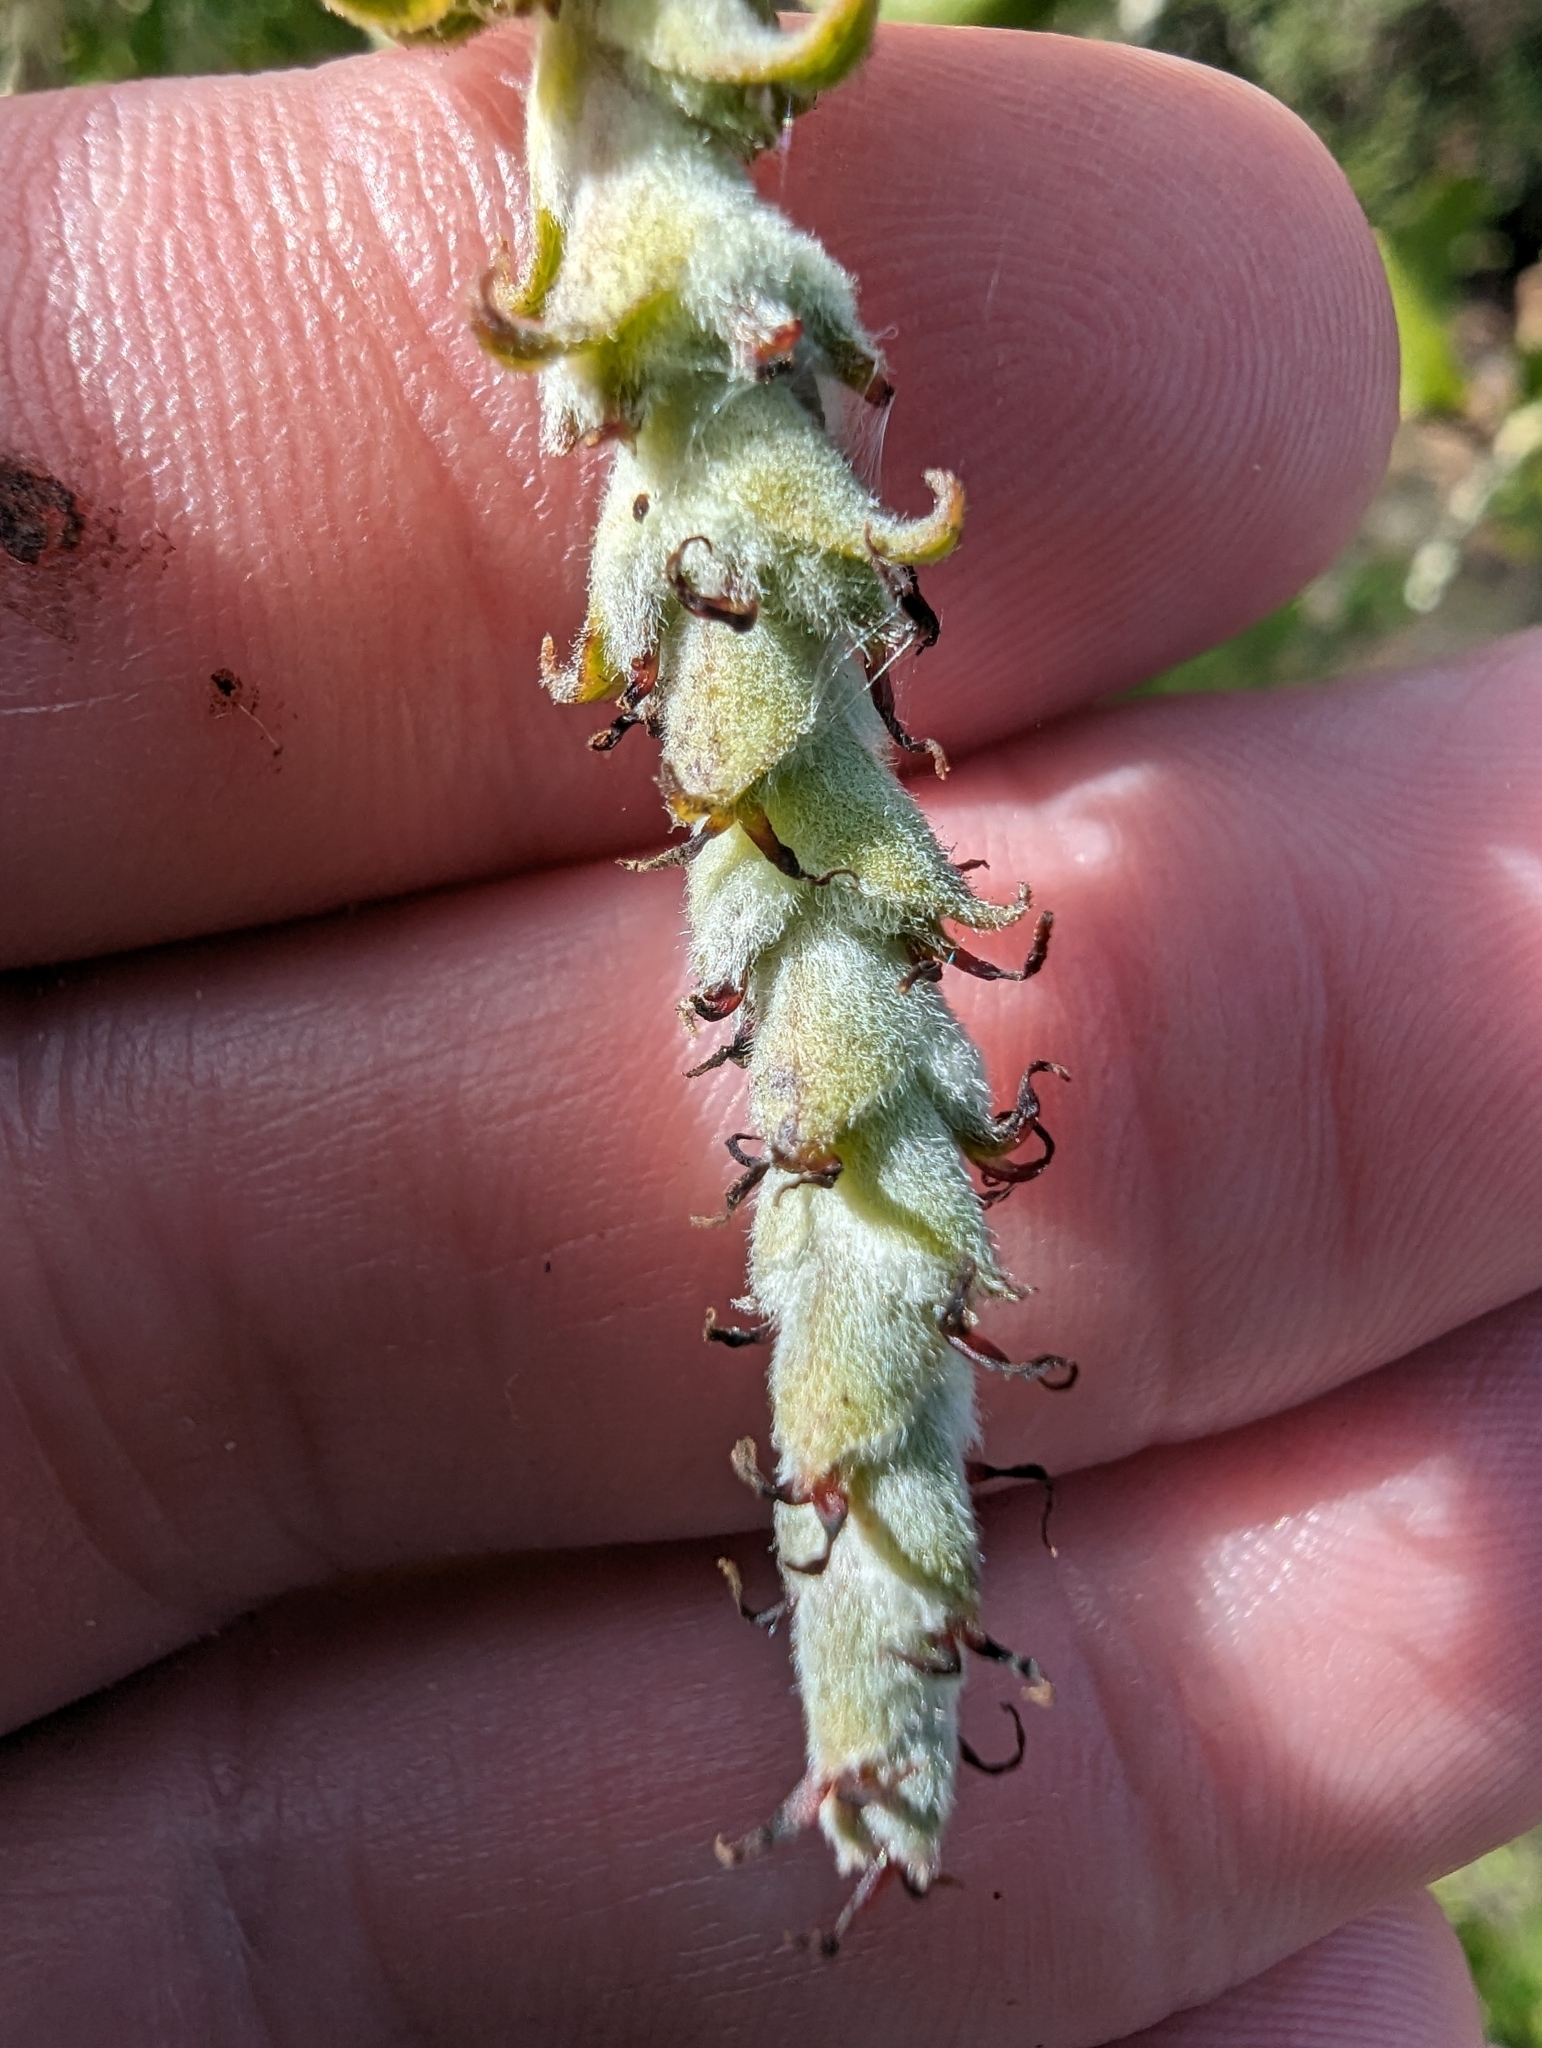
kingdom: Plantae
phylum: Tracheophyta
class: Magnoliopsida
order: Garryales
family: Garryaceae
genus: Garrya
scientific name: Garrya elliptica
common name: Silk-tassel
